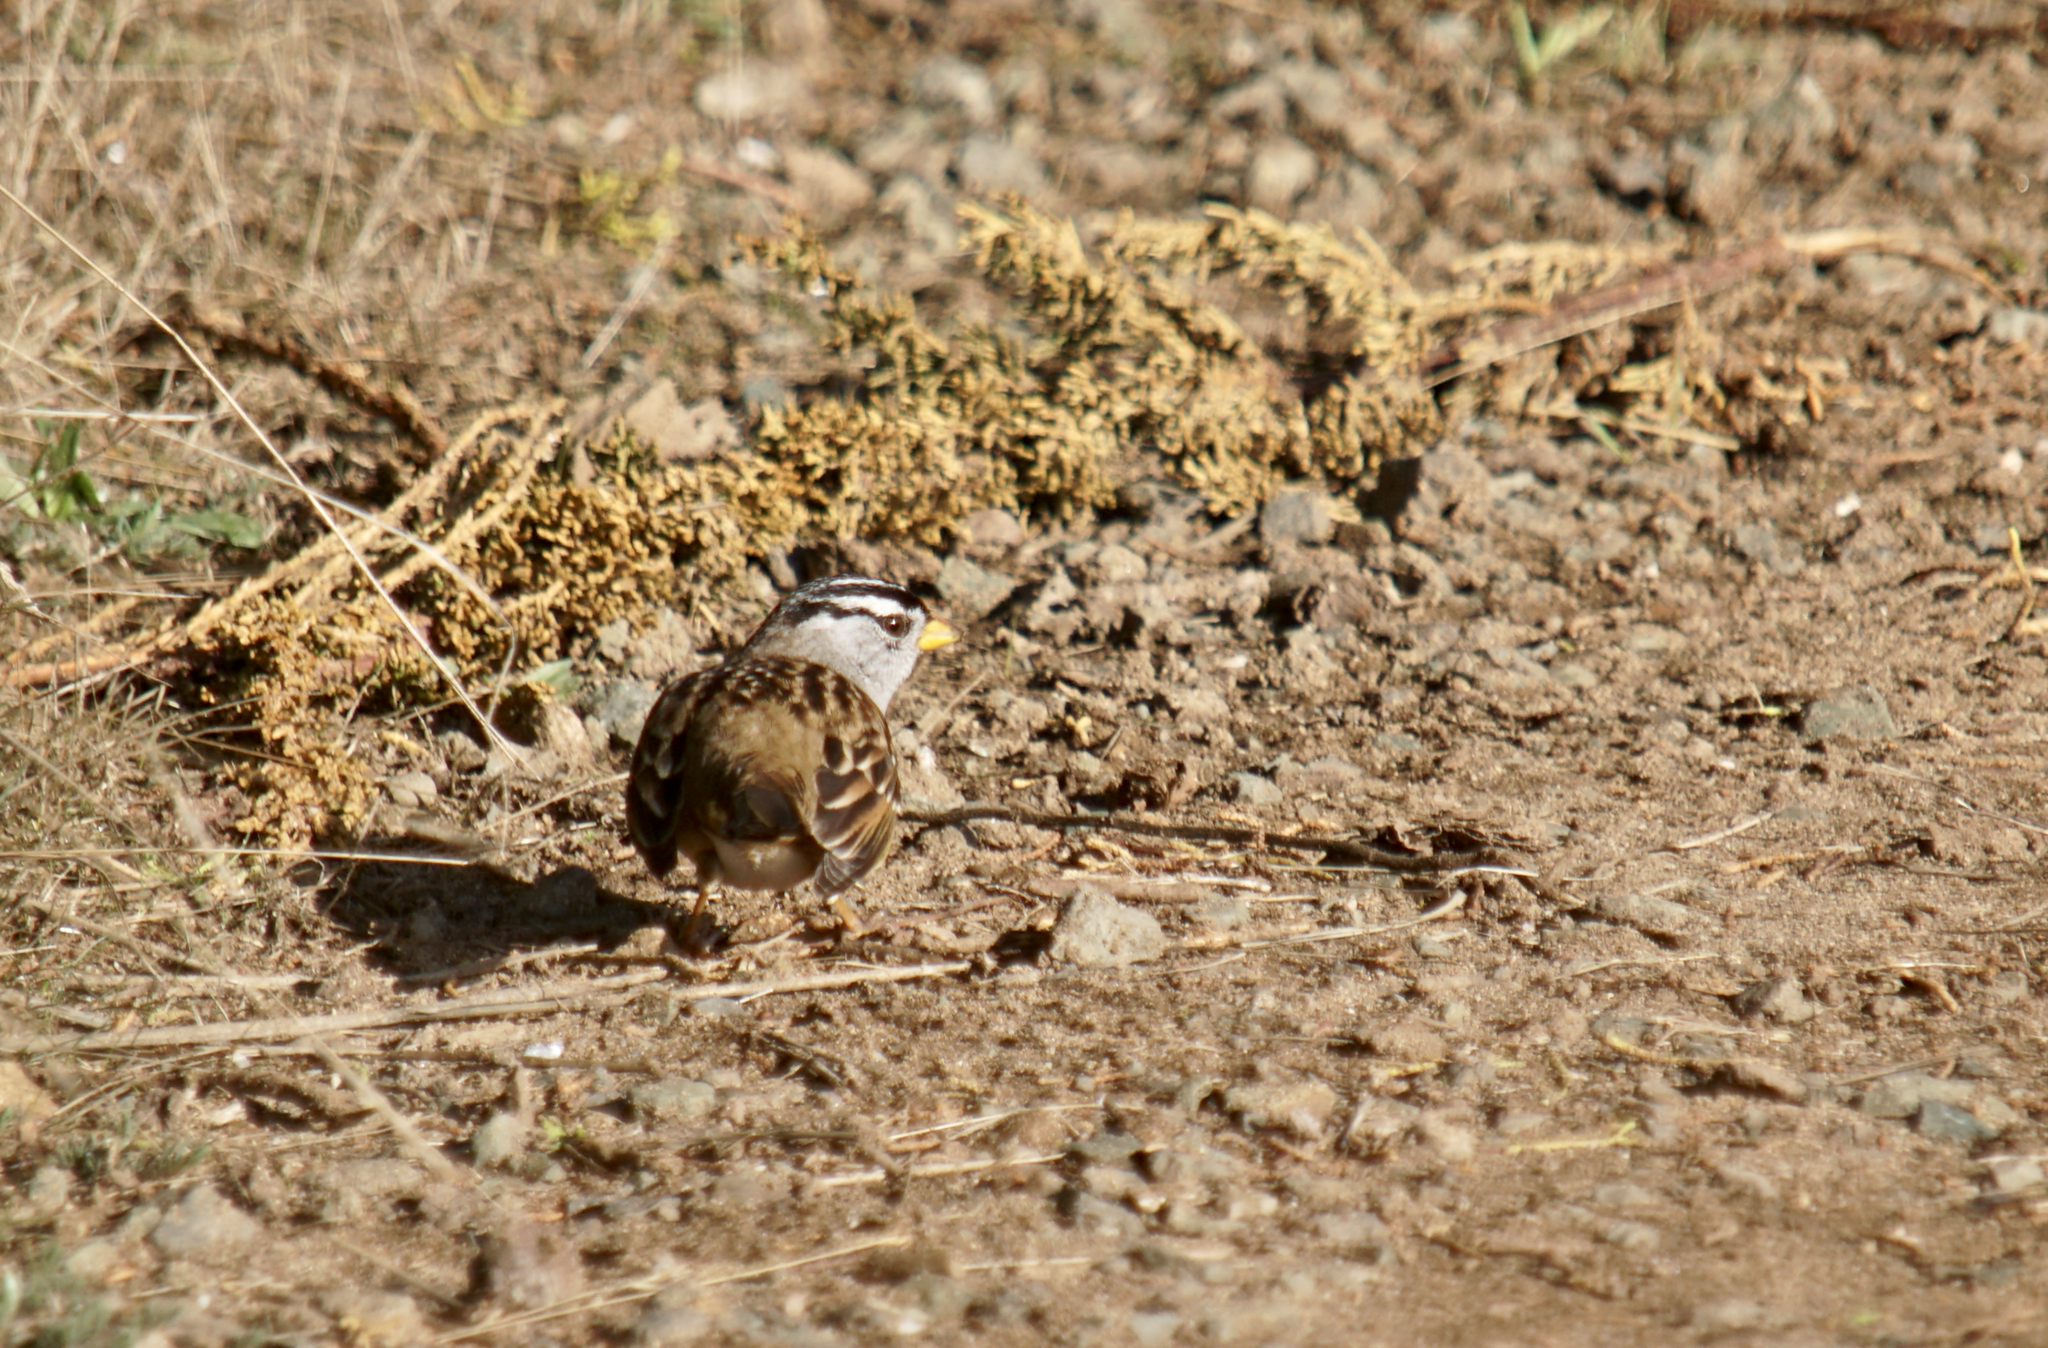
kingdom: Animalia
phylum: Chordata
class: Aves
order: Passeriformes
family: Passerellidae
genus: Zonotrichia
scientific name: Zonotrichia leucophrys
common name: White-crowned sparrow
